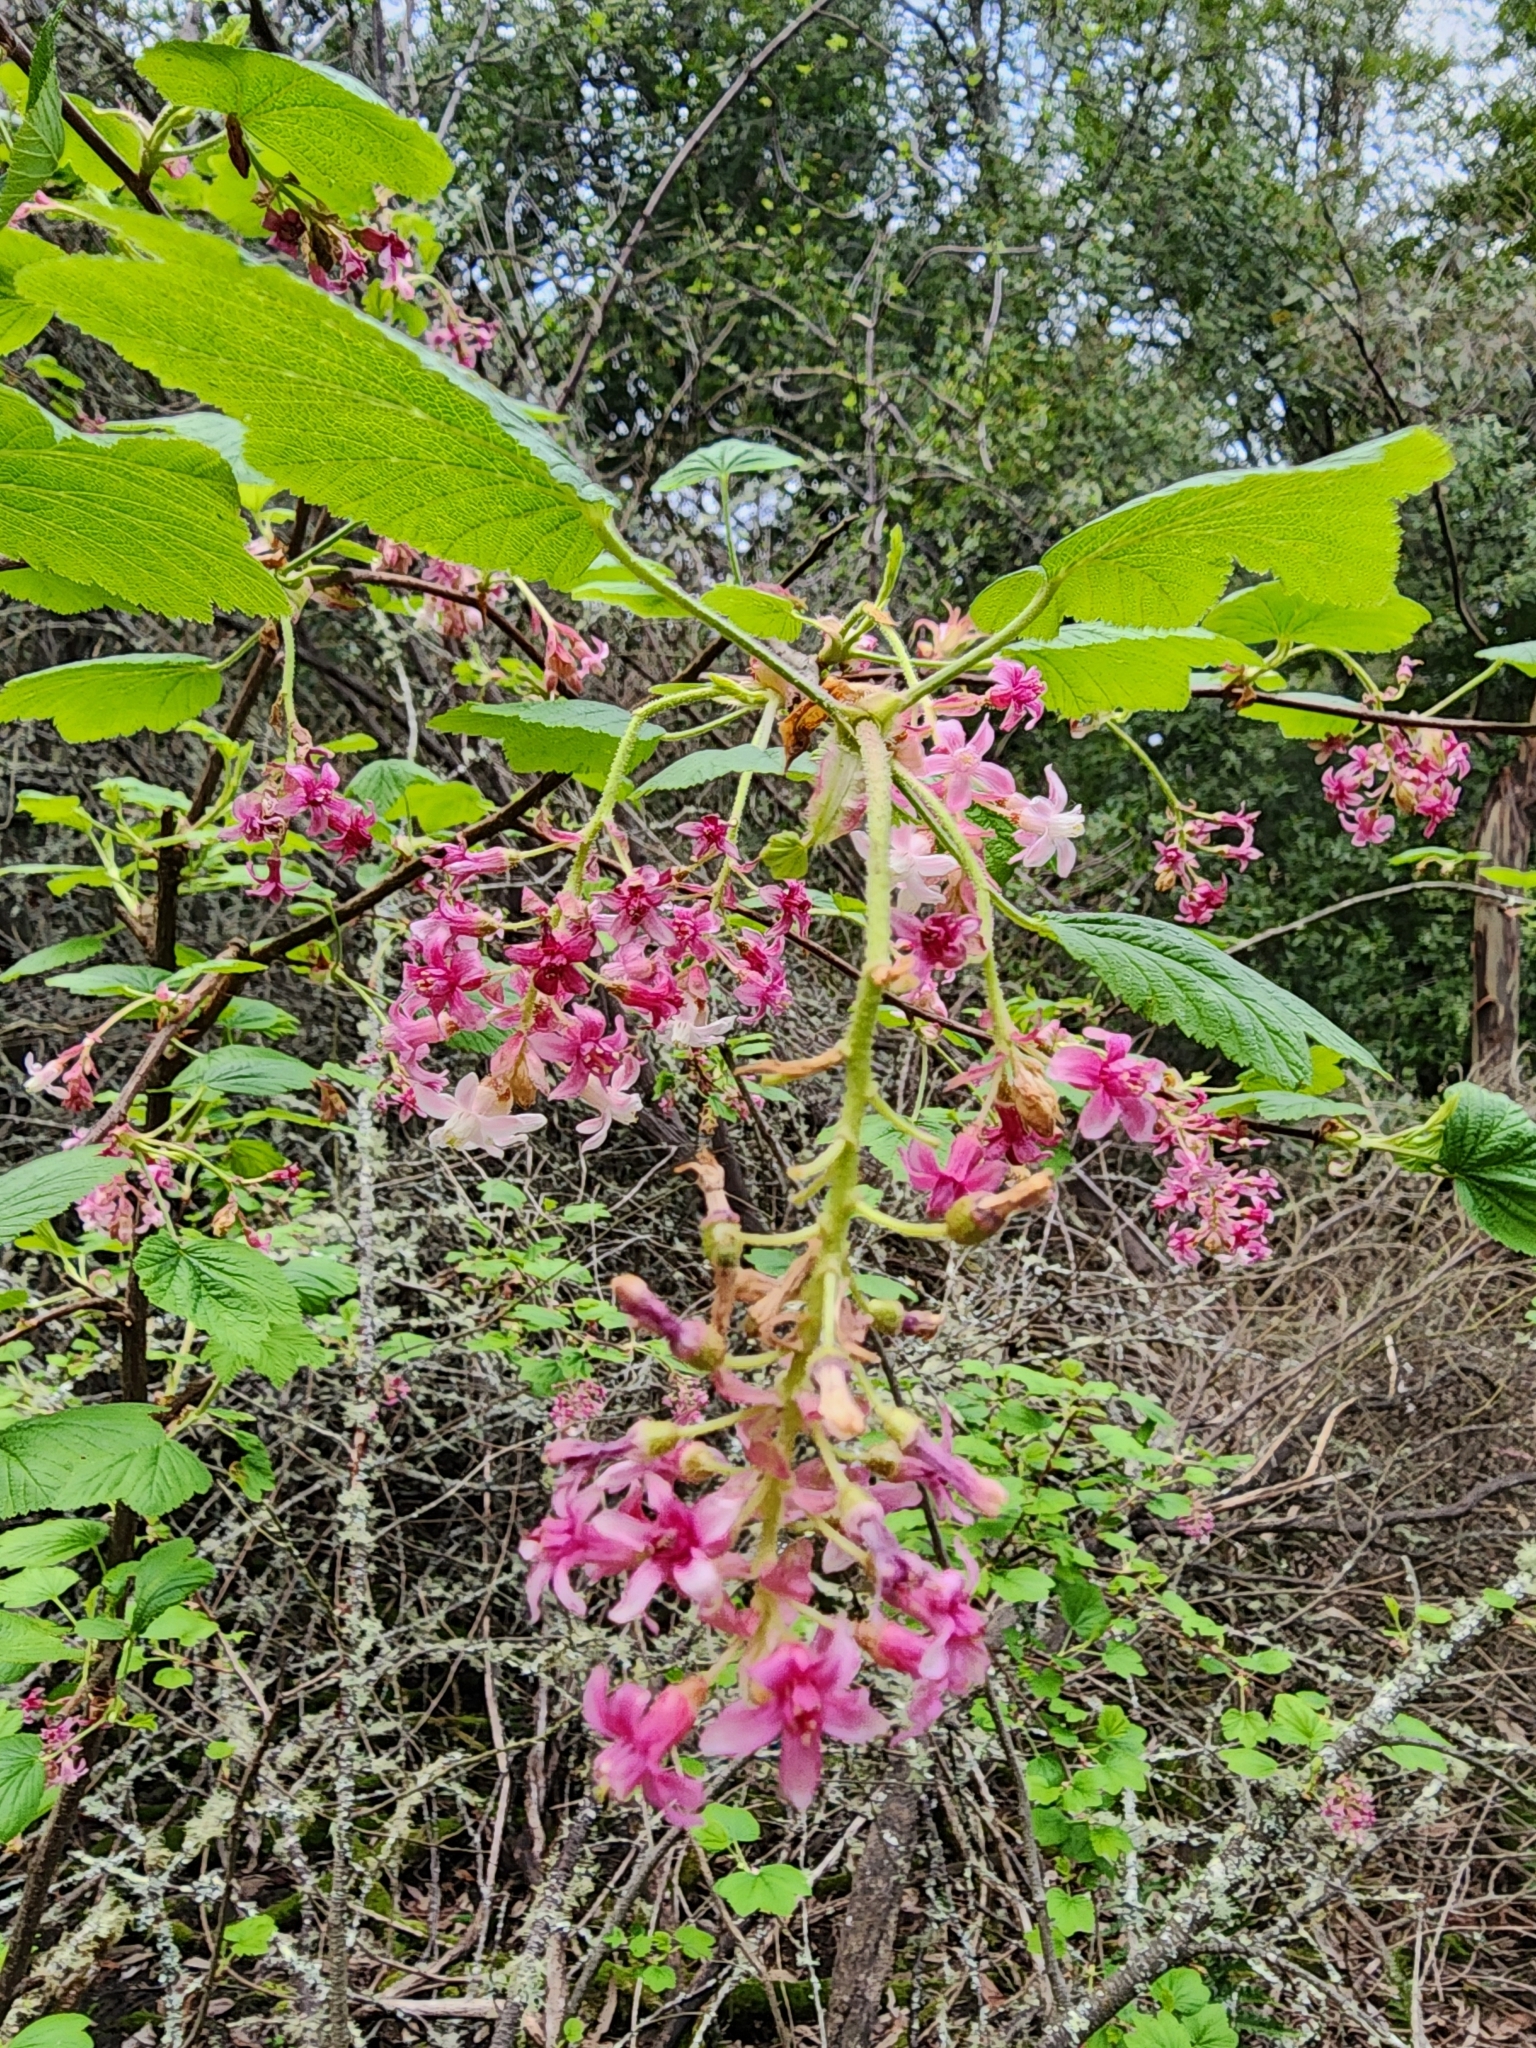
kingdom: Plantae
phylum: Tracheophyta
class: Magnoliopsida
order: Saxifragales
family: Grossulariaceae
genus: Ribes
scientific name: Ribes sanguineum
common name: Flowering currant
